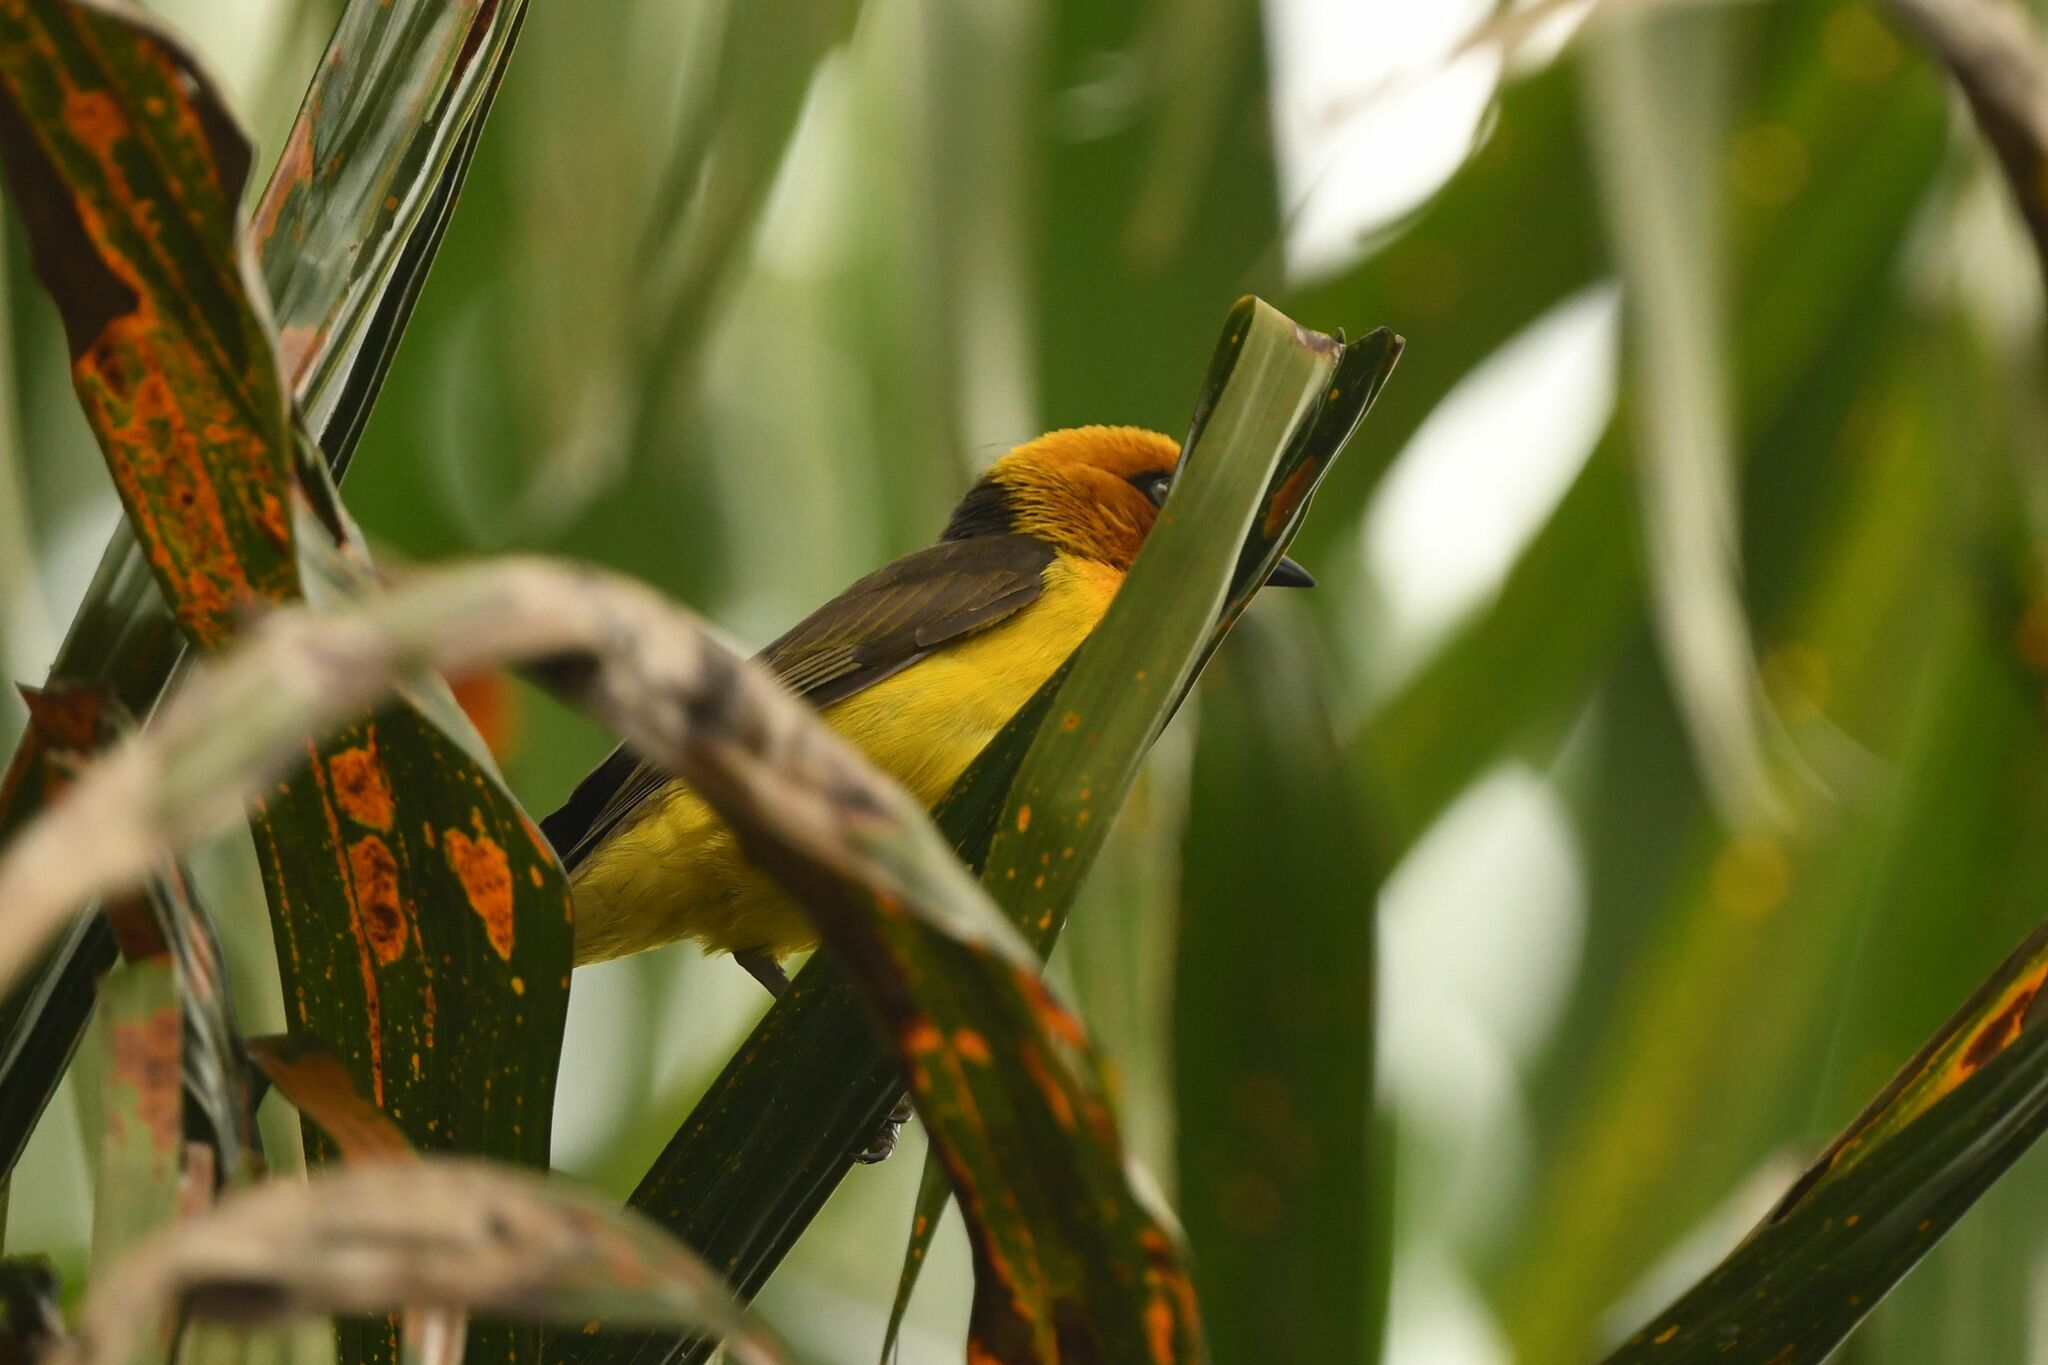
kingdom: Animalia
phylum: Chordata
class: Aves
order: Passeriformes
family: Ploceidae
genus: Ploceus
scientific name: Ploceus nigricollis
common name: Black-necked weaver
